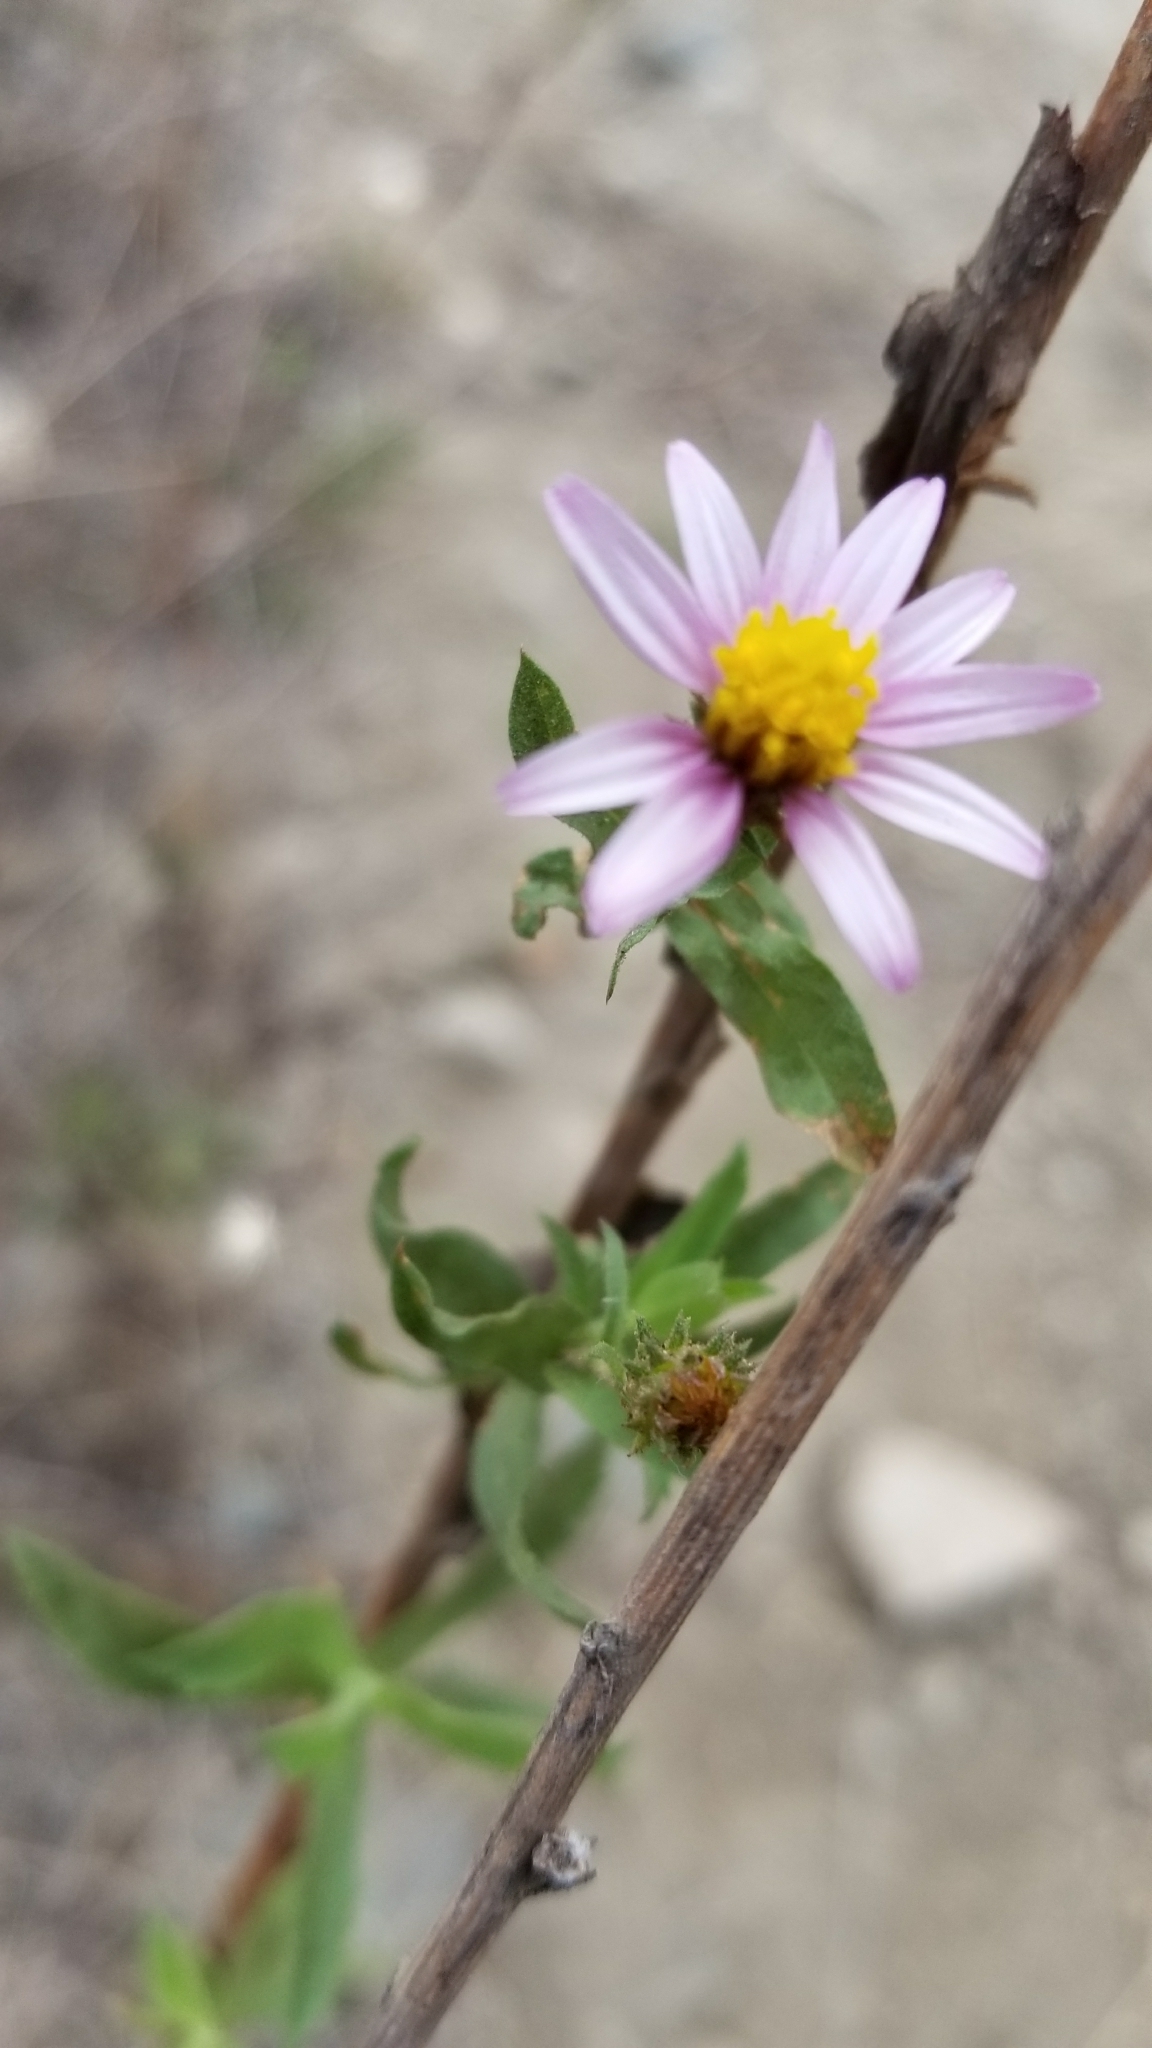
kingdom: Plantae
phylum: Tracheophyta
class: Magnoliopsida
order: Asterales
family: Asteraceae
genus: Corethrogyne
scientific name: Corethrogyne filaginifolia
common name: Sand-aster
